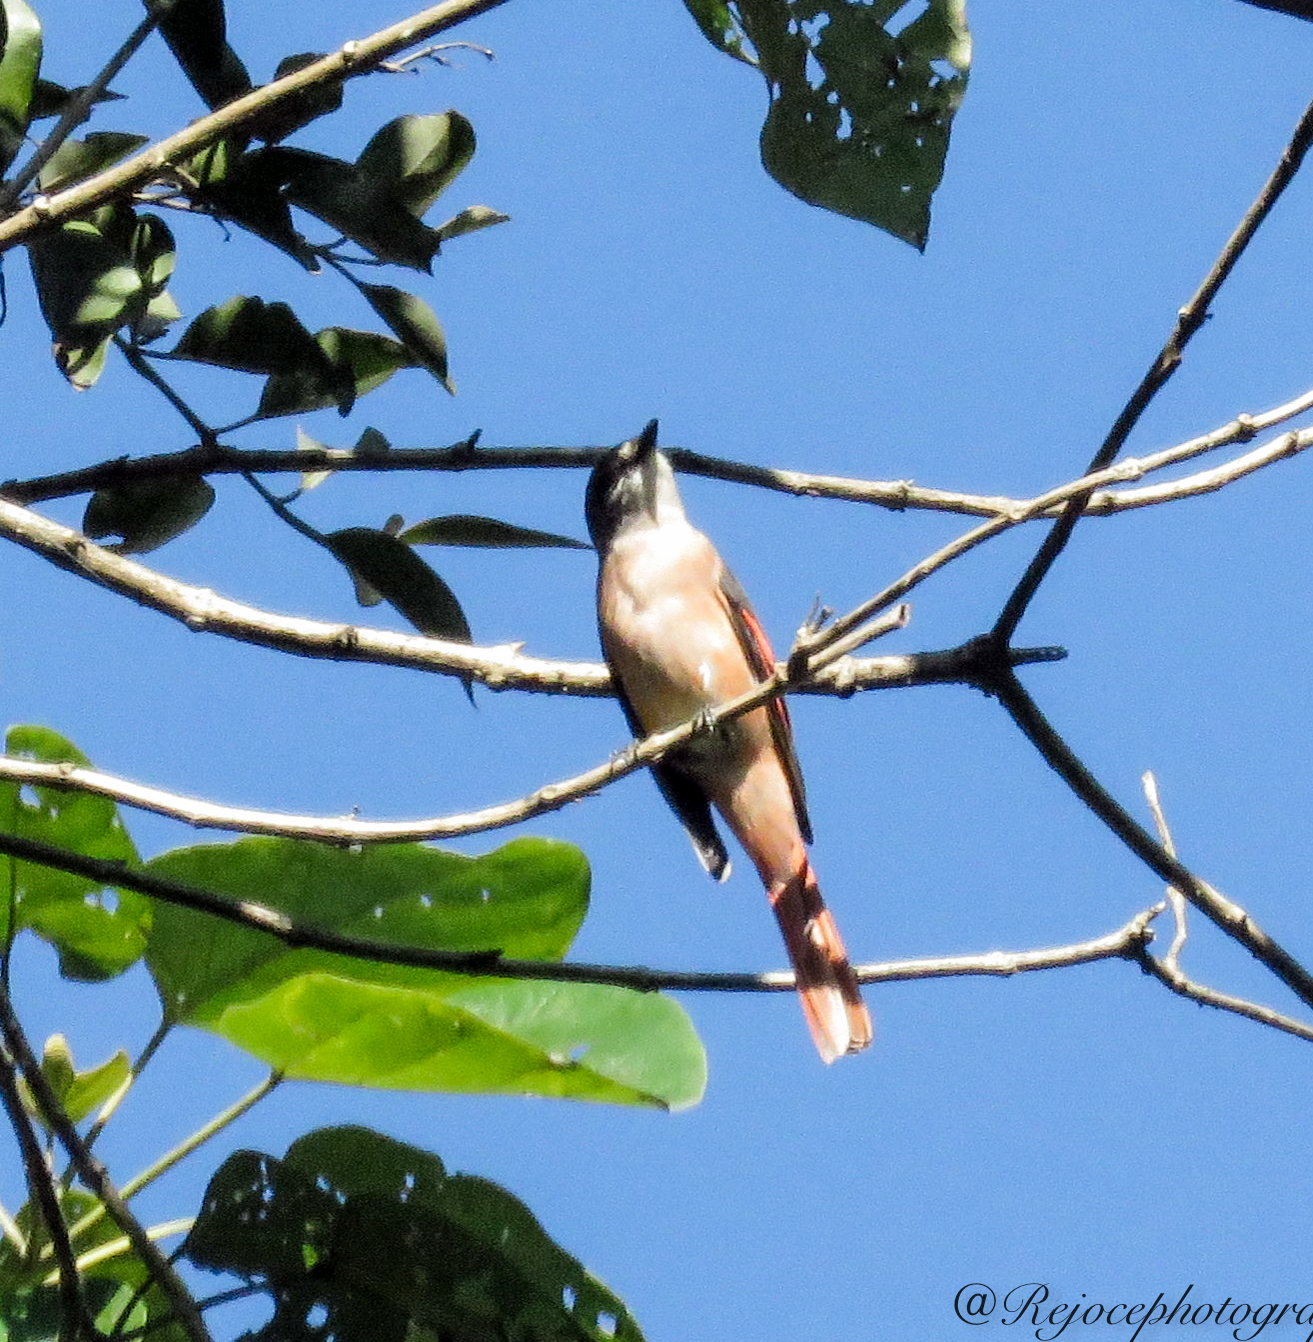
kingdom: Animalia
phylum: Chordata
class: Aves
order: Passeriformes
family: Campephagidae
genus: Pericrocotus
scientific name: Pericrocotus roseus
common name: Rosy minivet
